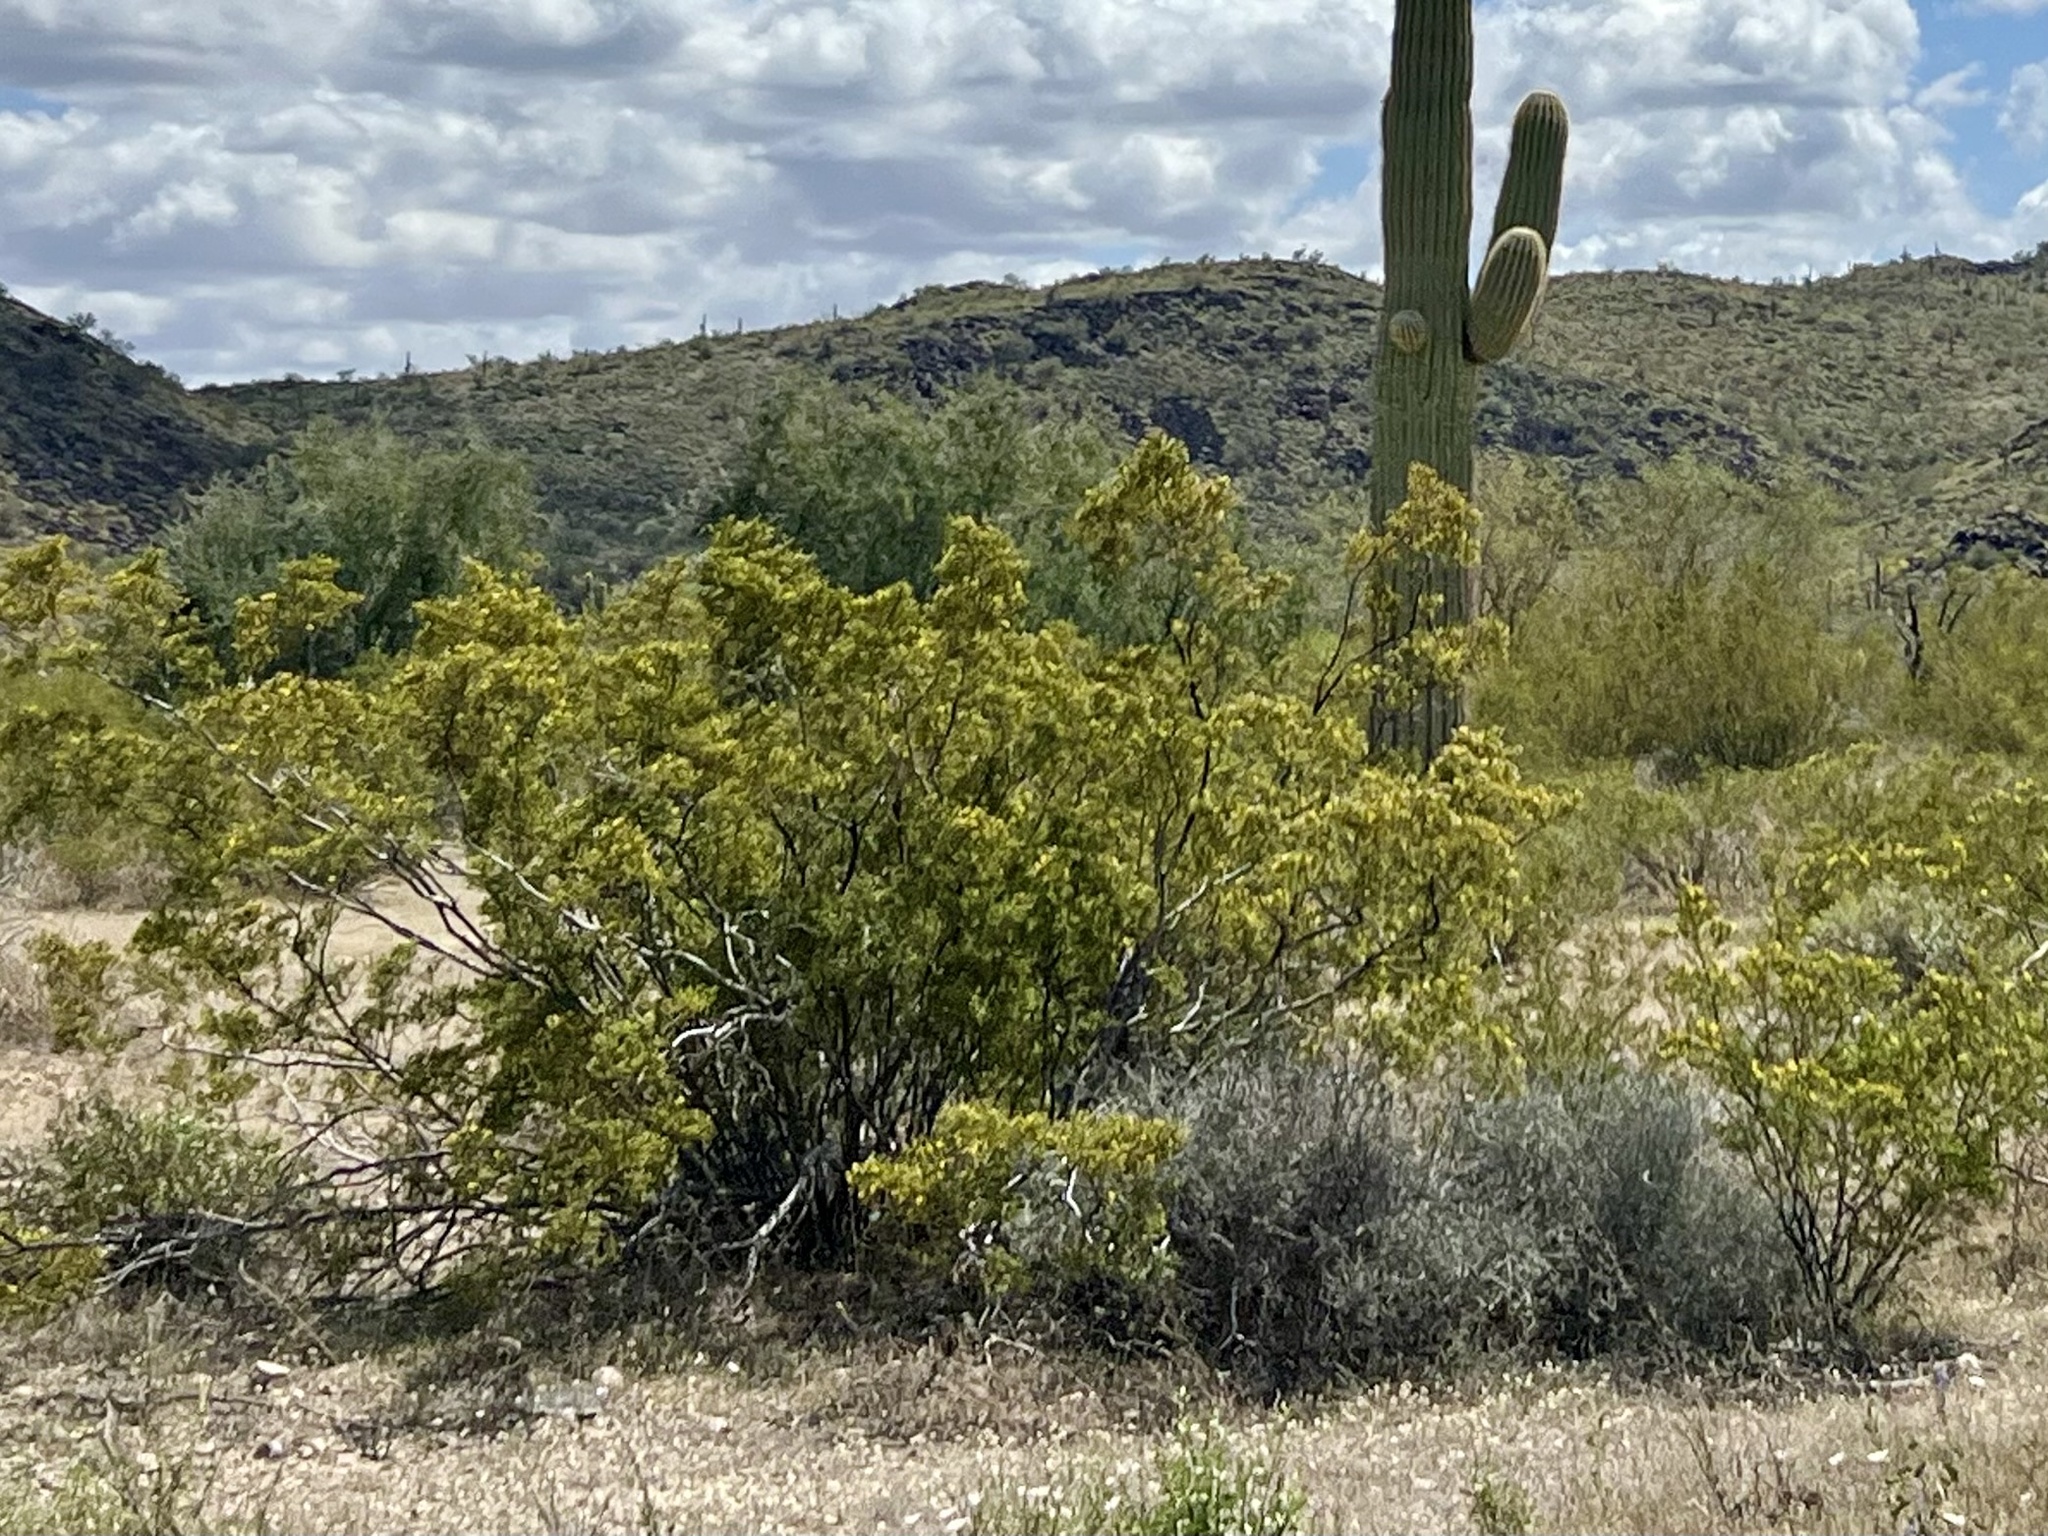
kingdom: Plantae
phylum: Tracheophyta
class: Magnoliopsida
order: Zygophyllales
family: Zygophyllaceae
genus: Larrea
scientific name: Larrea tridentata
